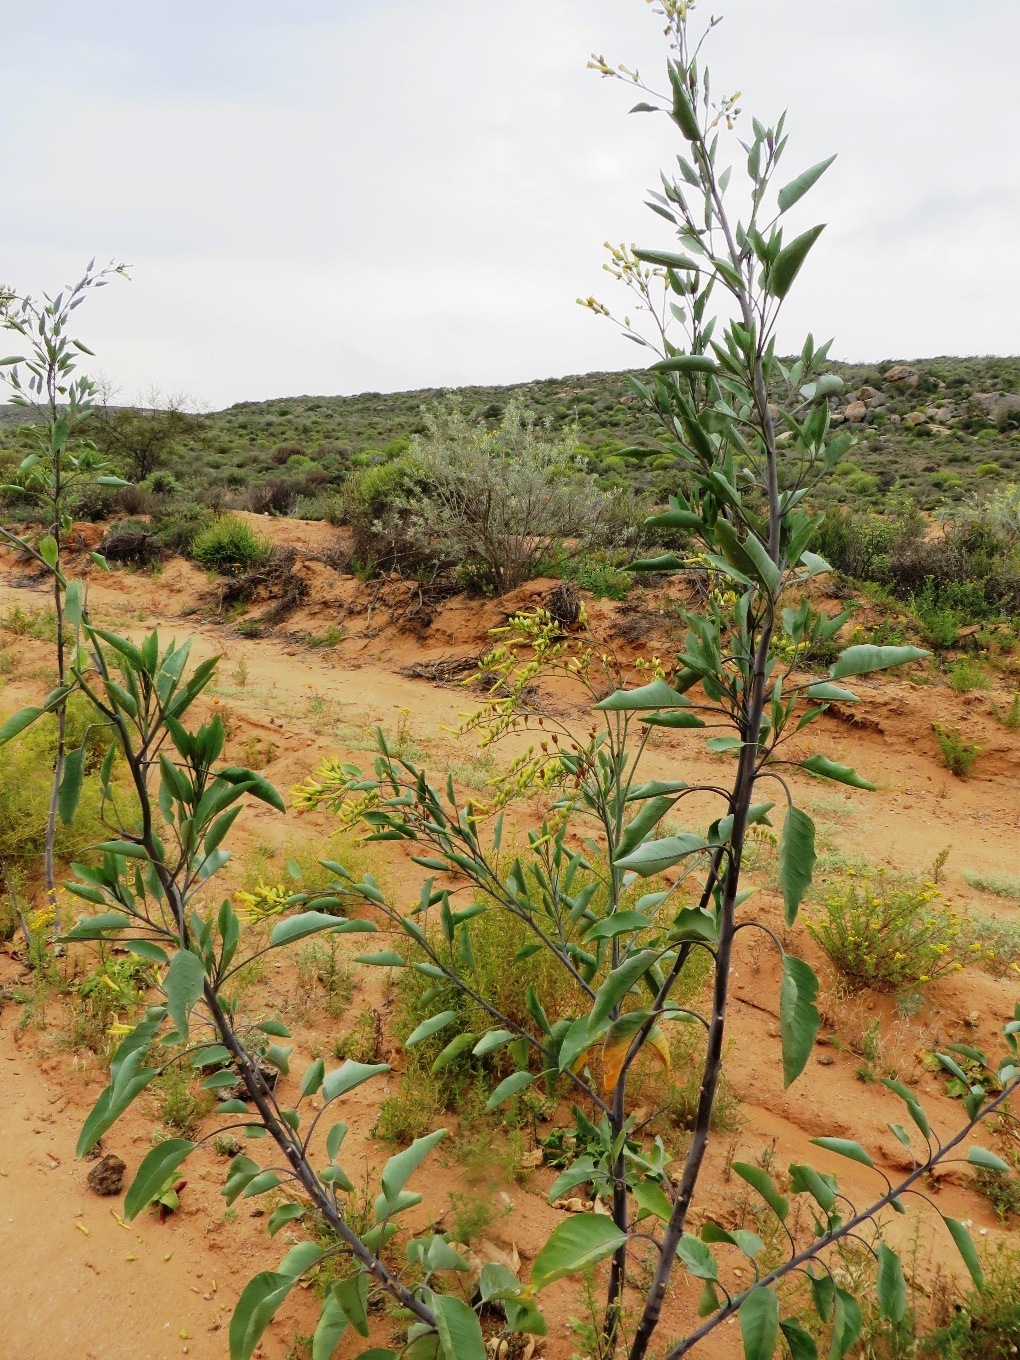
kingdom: Plantae
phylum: Tracheophyta
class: Magnoliopsida
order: Solanales
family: Solanaceae
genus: Nicotiana
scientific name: Nicotiana glauca
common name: Tree tobacco
